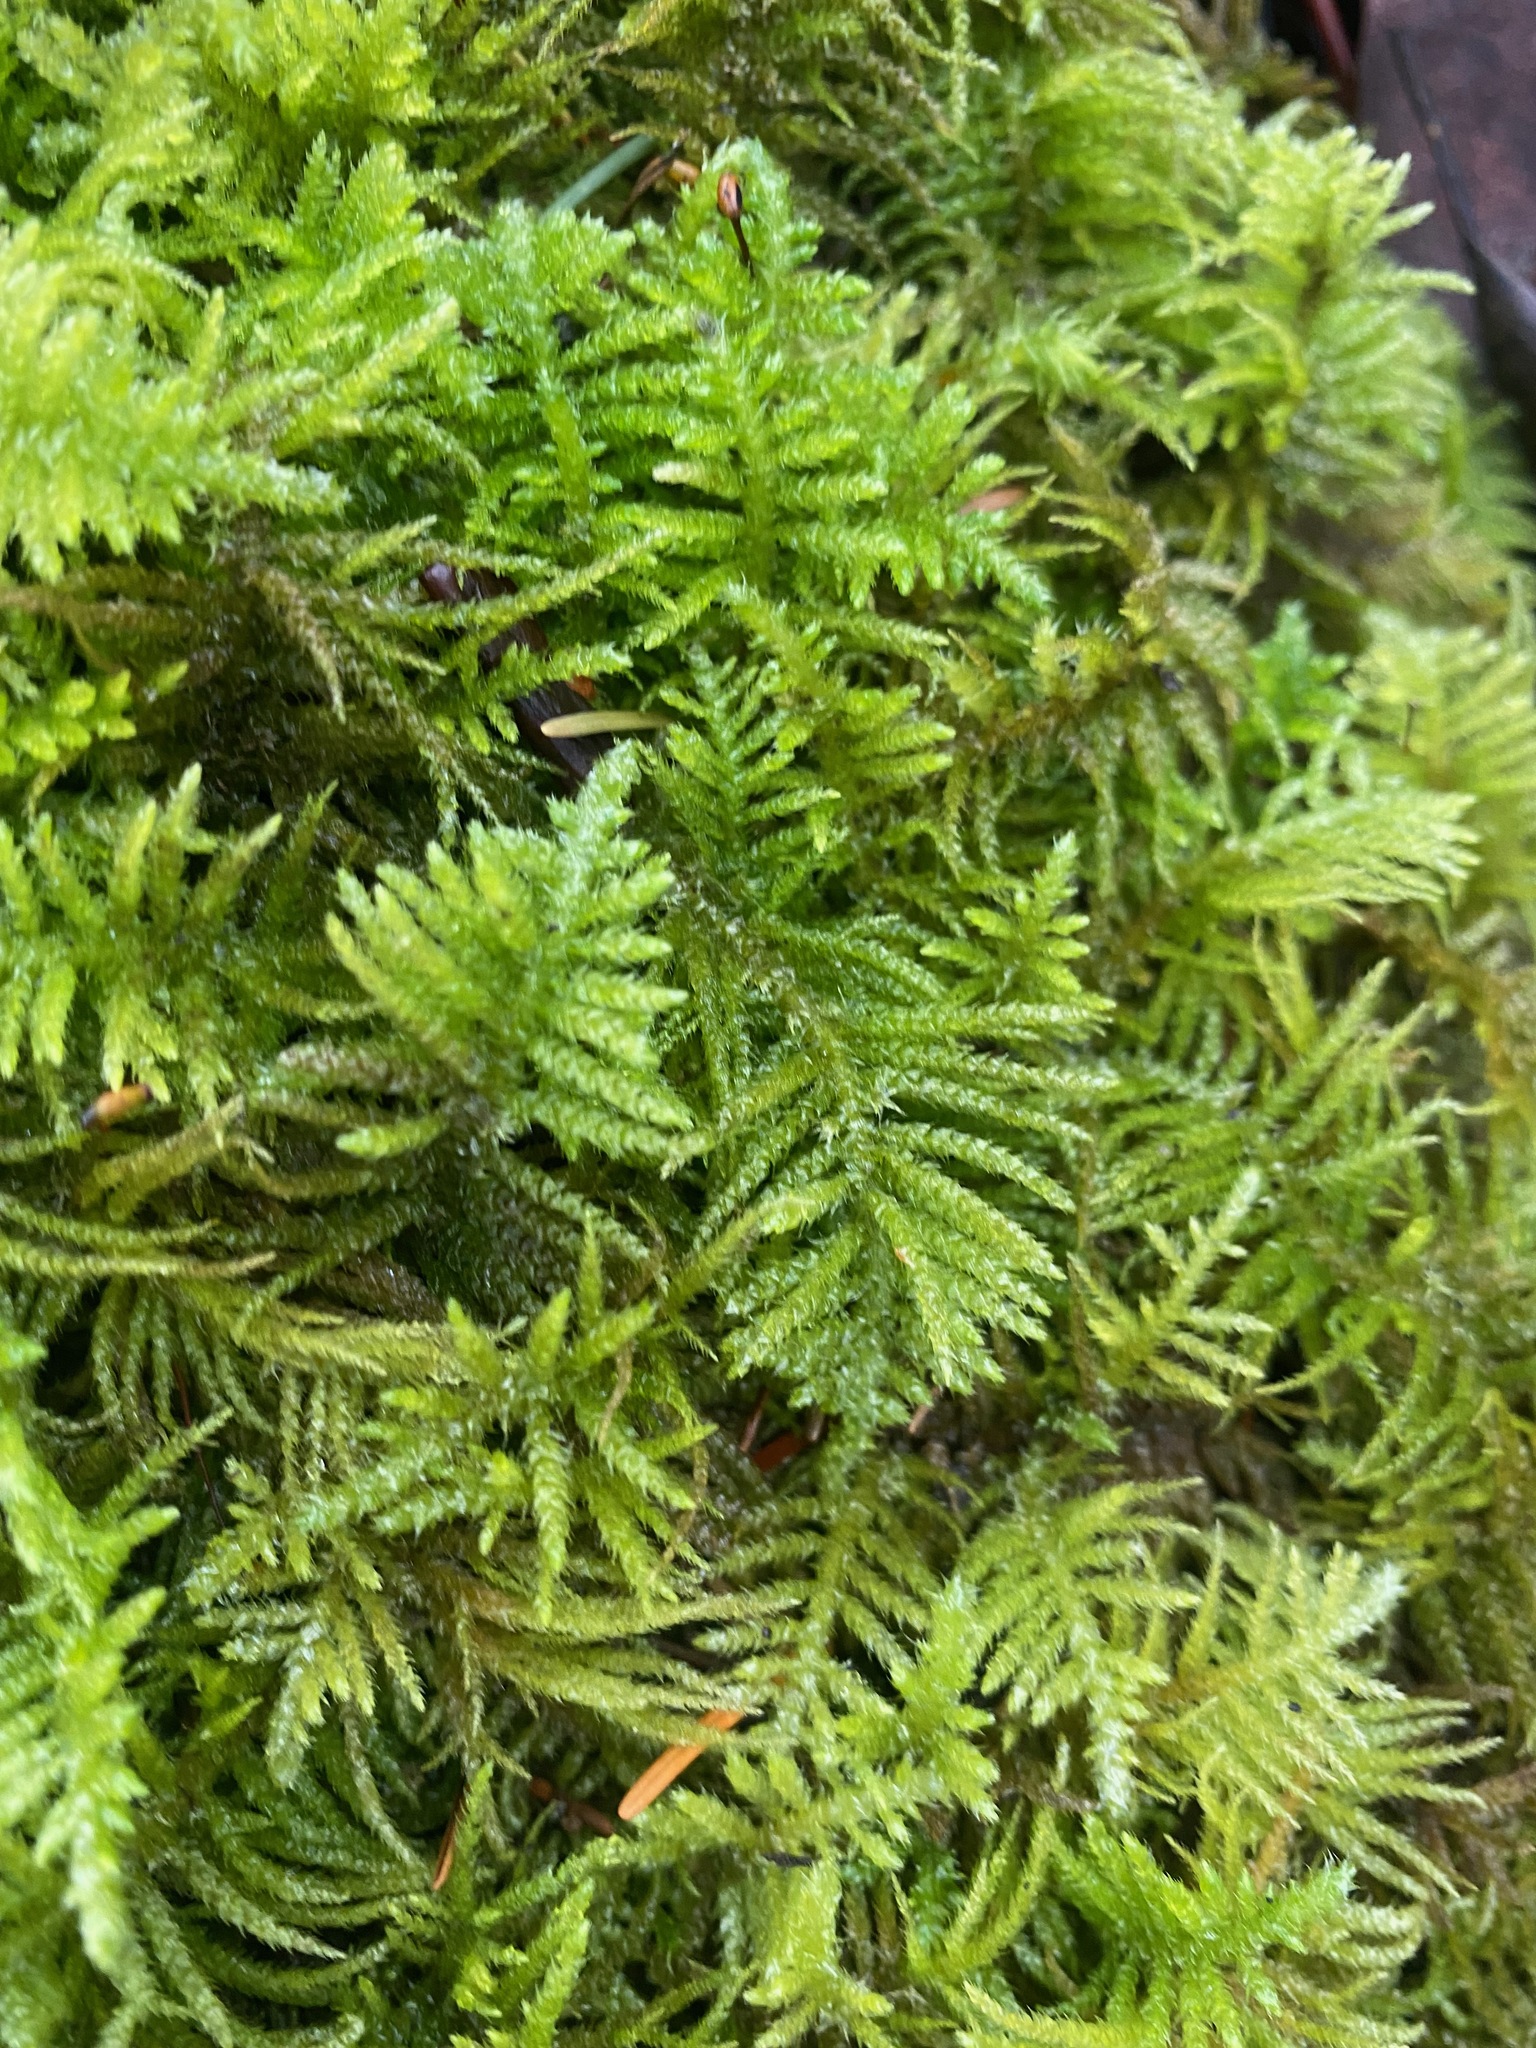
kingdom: Plantae
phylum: Bryophyta
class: Bryopsida
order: Hypnales
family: Brachytheciaceae
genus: Kindbergia
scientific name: Kindbergia oregana
